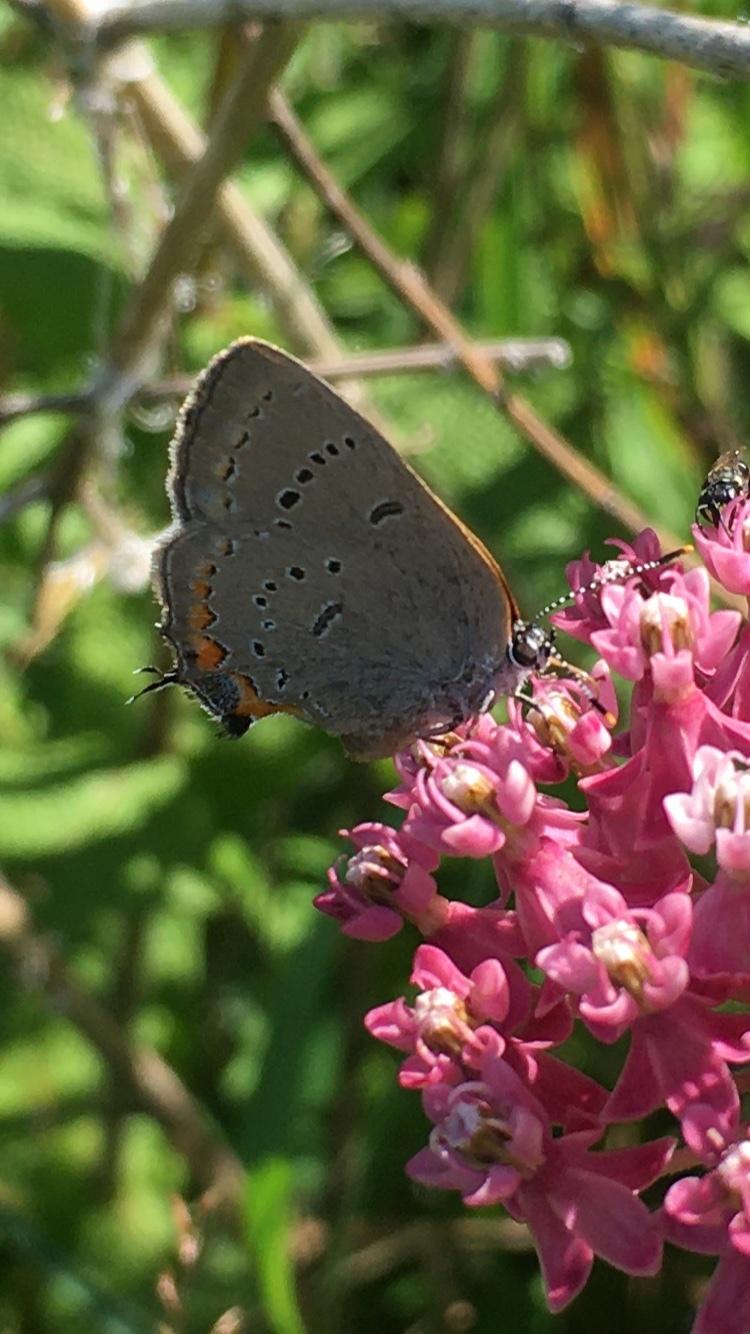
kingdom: Animalia
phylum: Arthropoda
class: Insecta
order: Lepidoptera
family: Lycaenidae
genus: Strymon
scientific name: Strymon acadica
